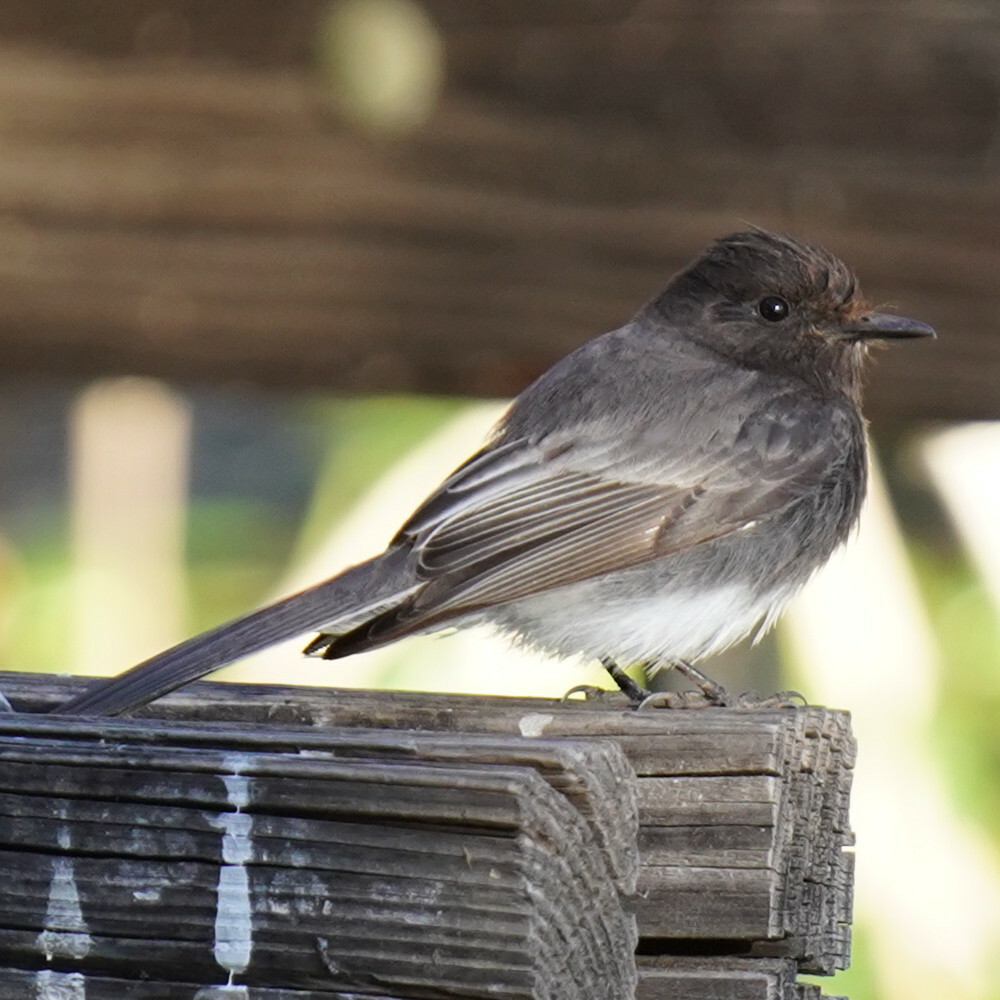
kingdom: Animalia
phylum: Chordata
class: Aves
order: Passeriformes
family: Tyrannidae
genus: Sayornis
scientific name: Sayornis nigricans
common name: Black phoebe
